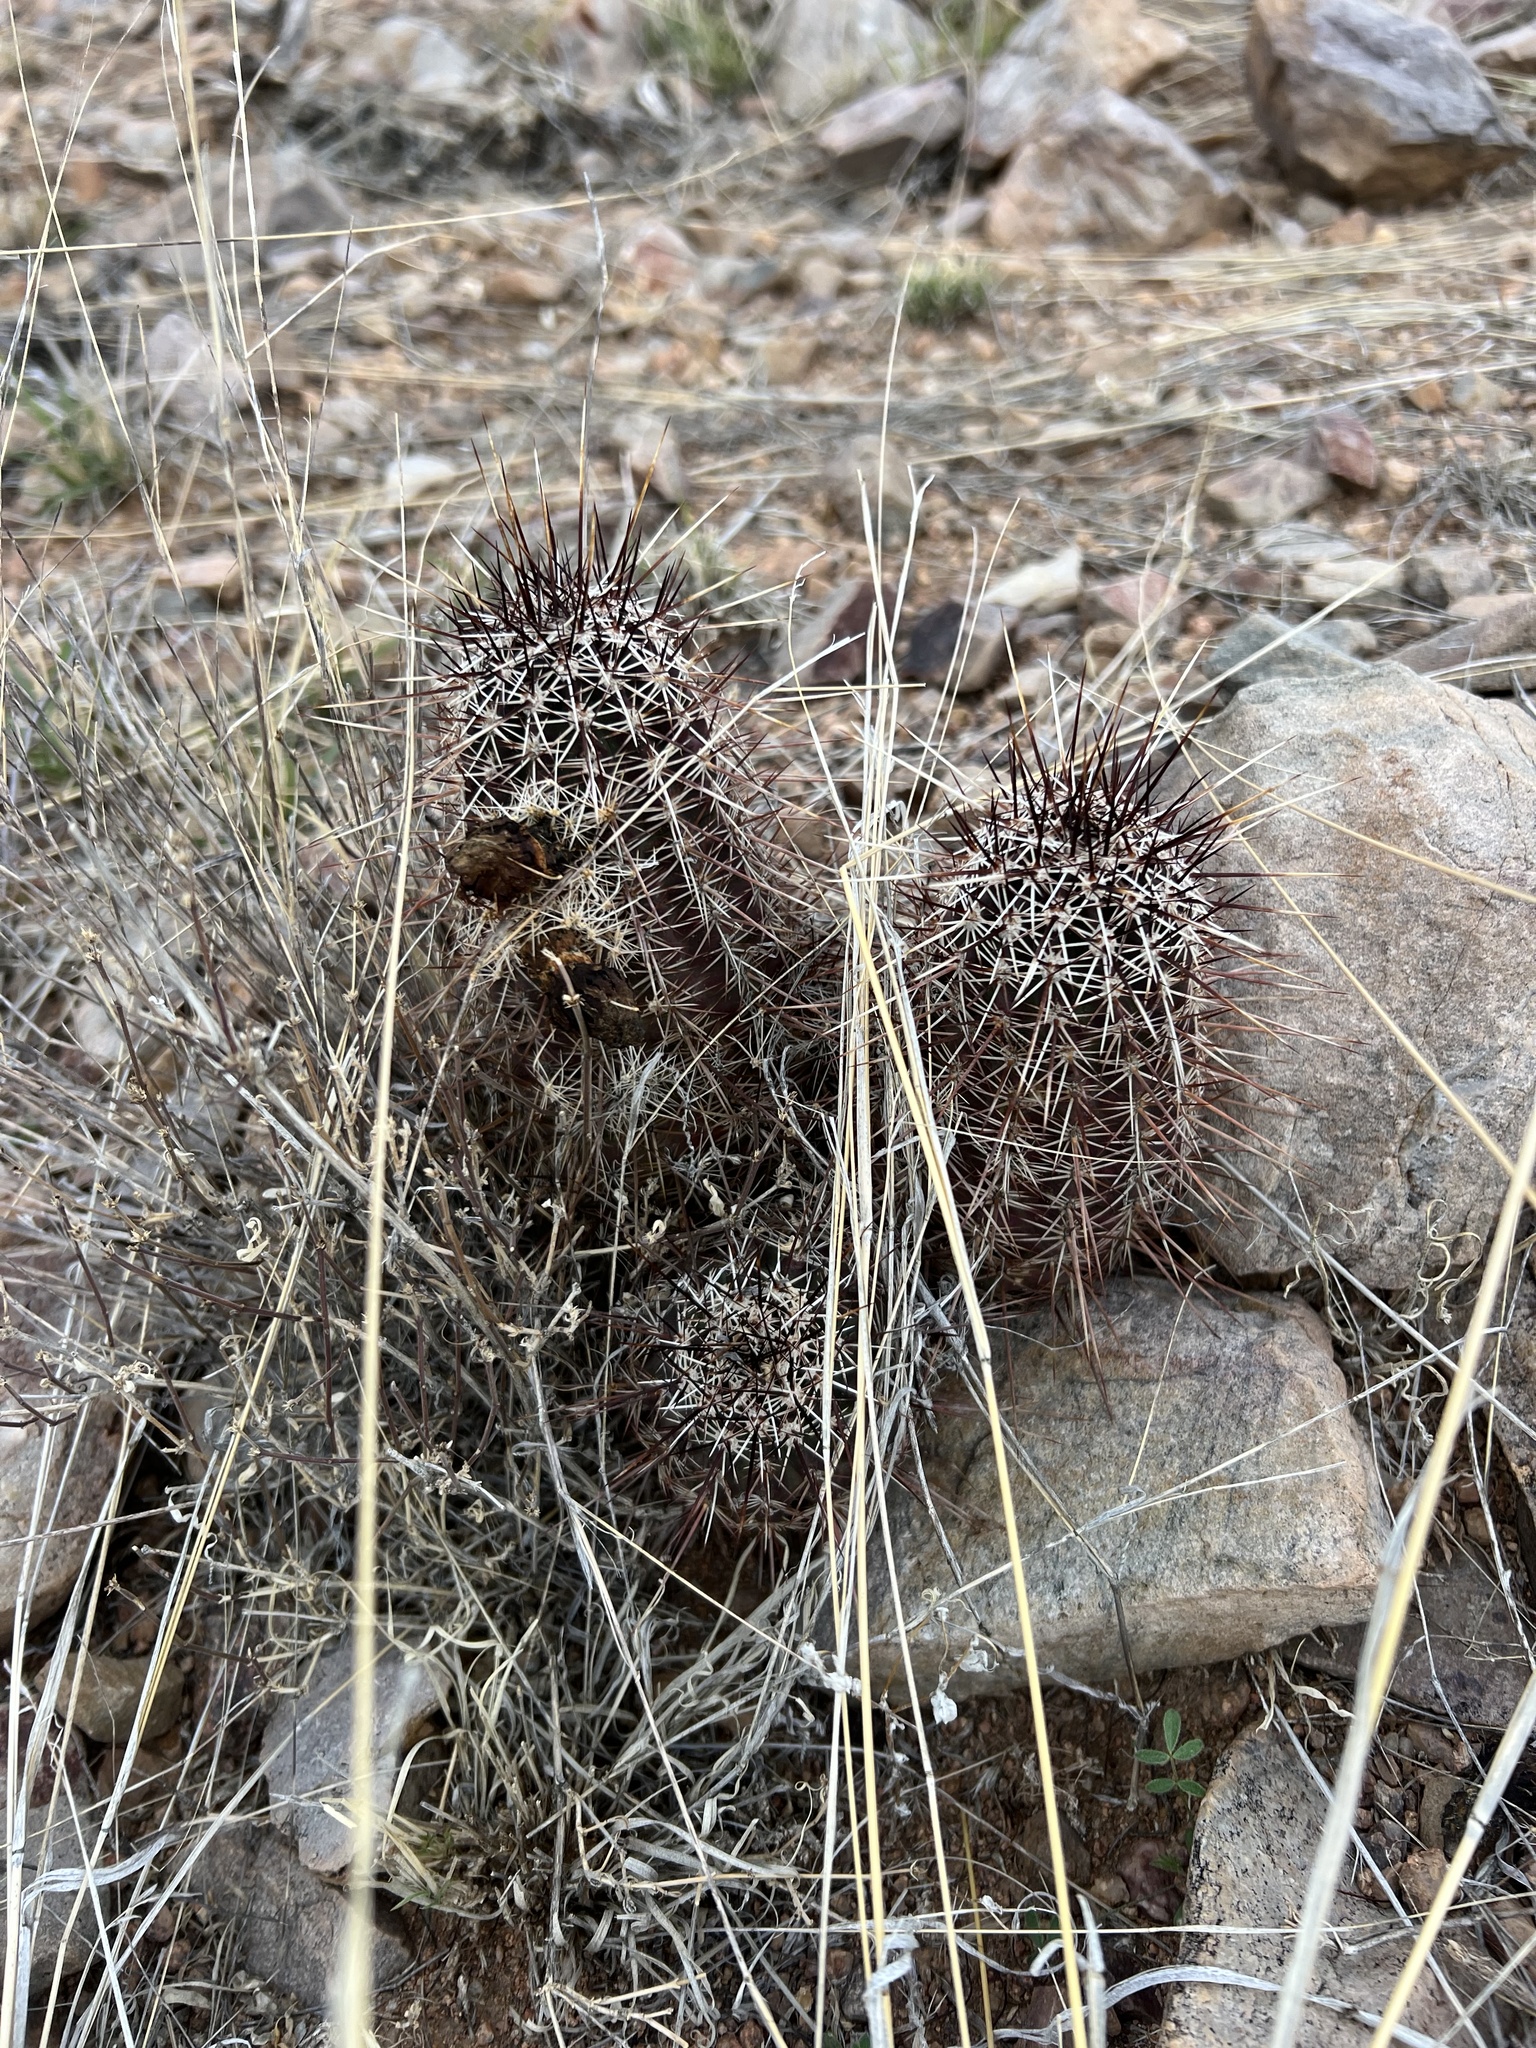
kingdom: Plantae
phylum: Tracheophyta
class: Magnoliopsida
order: Caryophyllales
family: Cactaceae
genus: Echinocereus
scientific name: Echinocereus fasciculatus
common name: Bundle hedgehog
